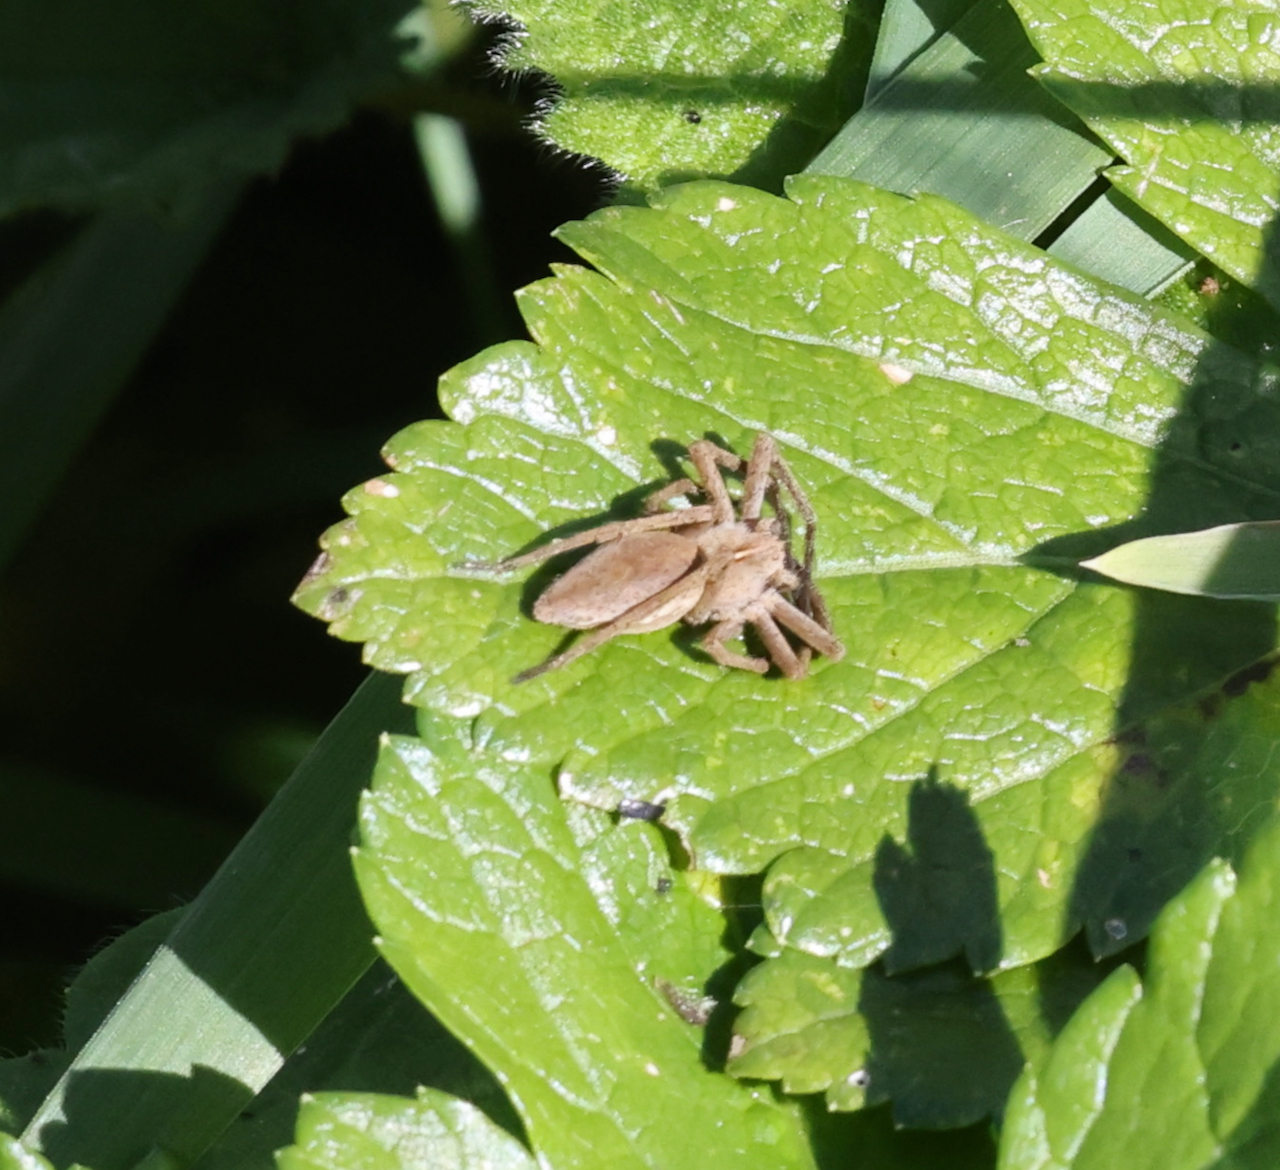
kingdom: Animalia
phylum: Arthropoda
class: Arachnida
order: Araneae
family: Pisauridae
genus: Pisaura
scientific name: Pisaura mirabilis
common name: Tent spider
